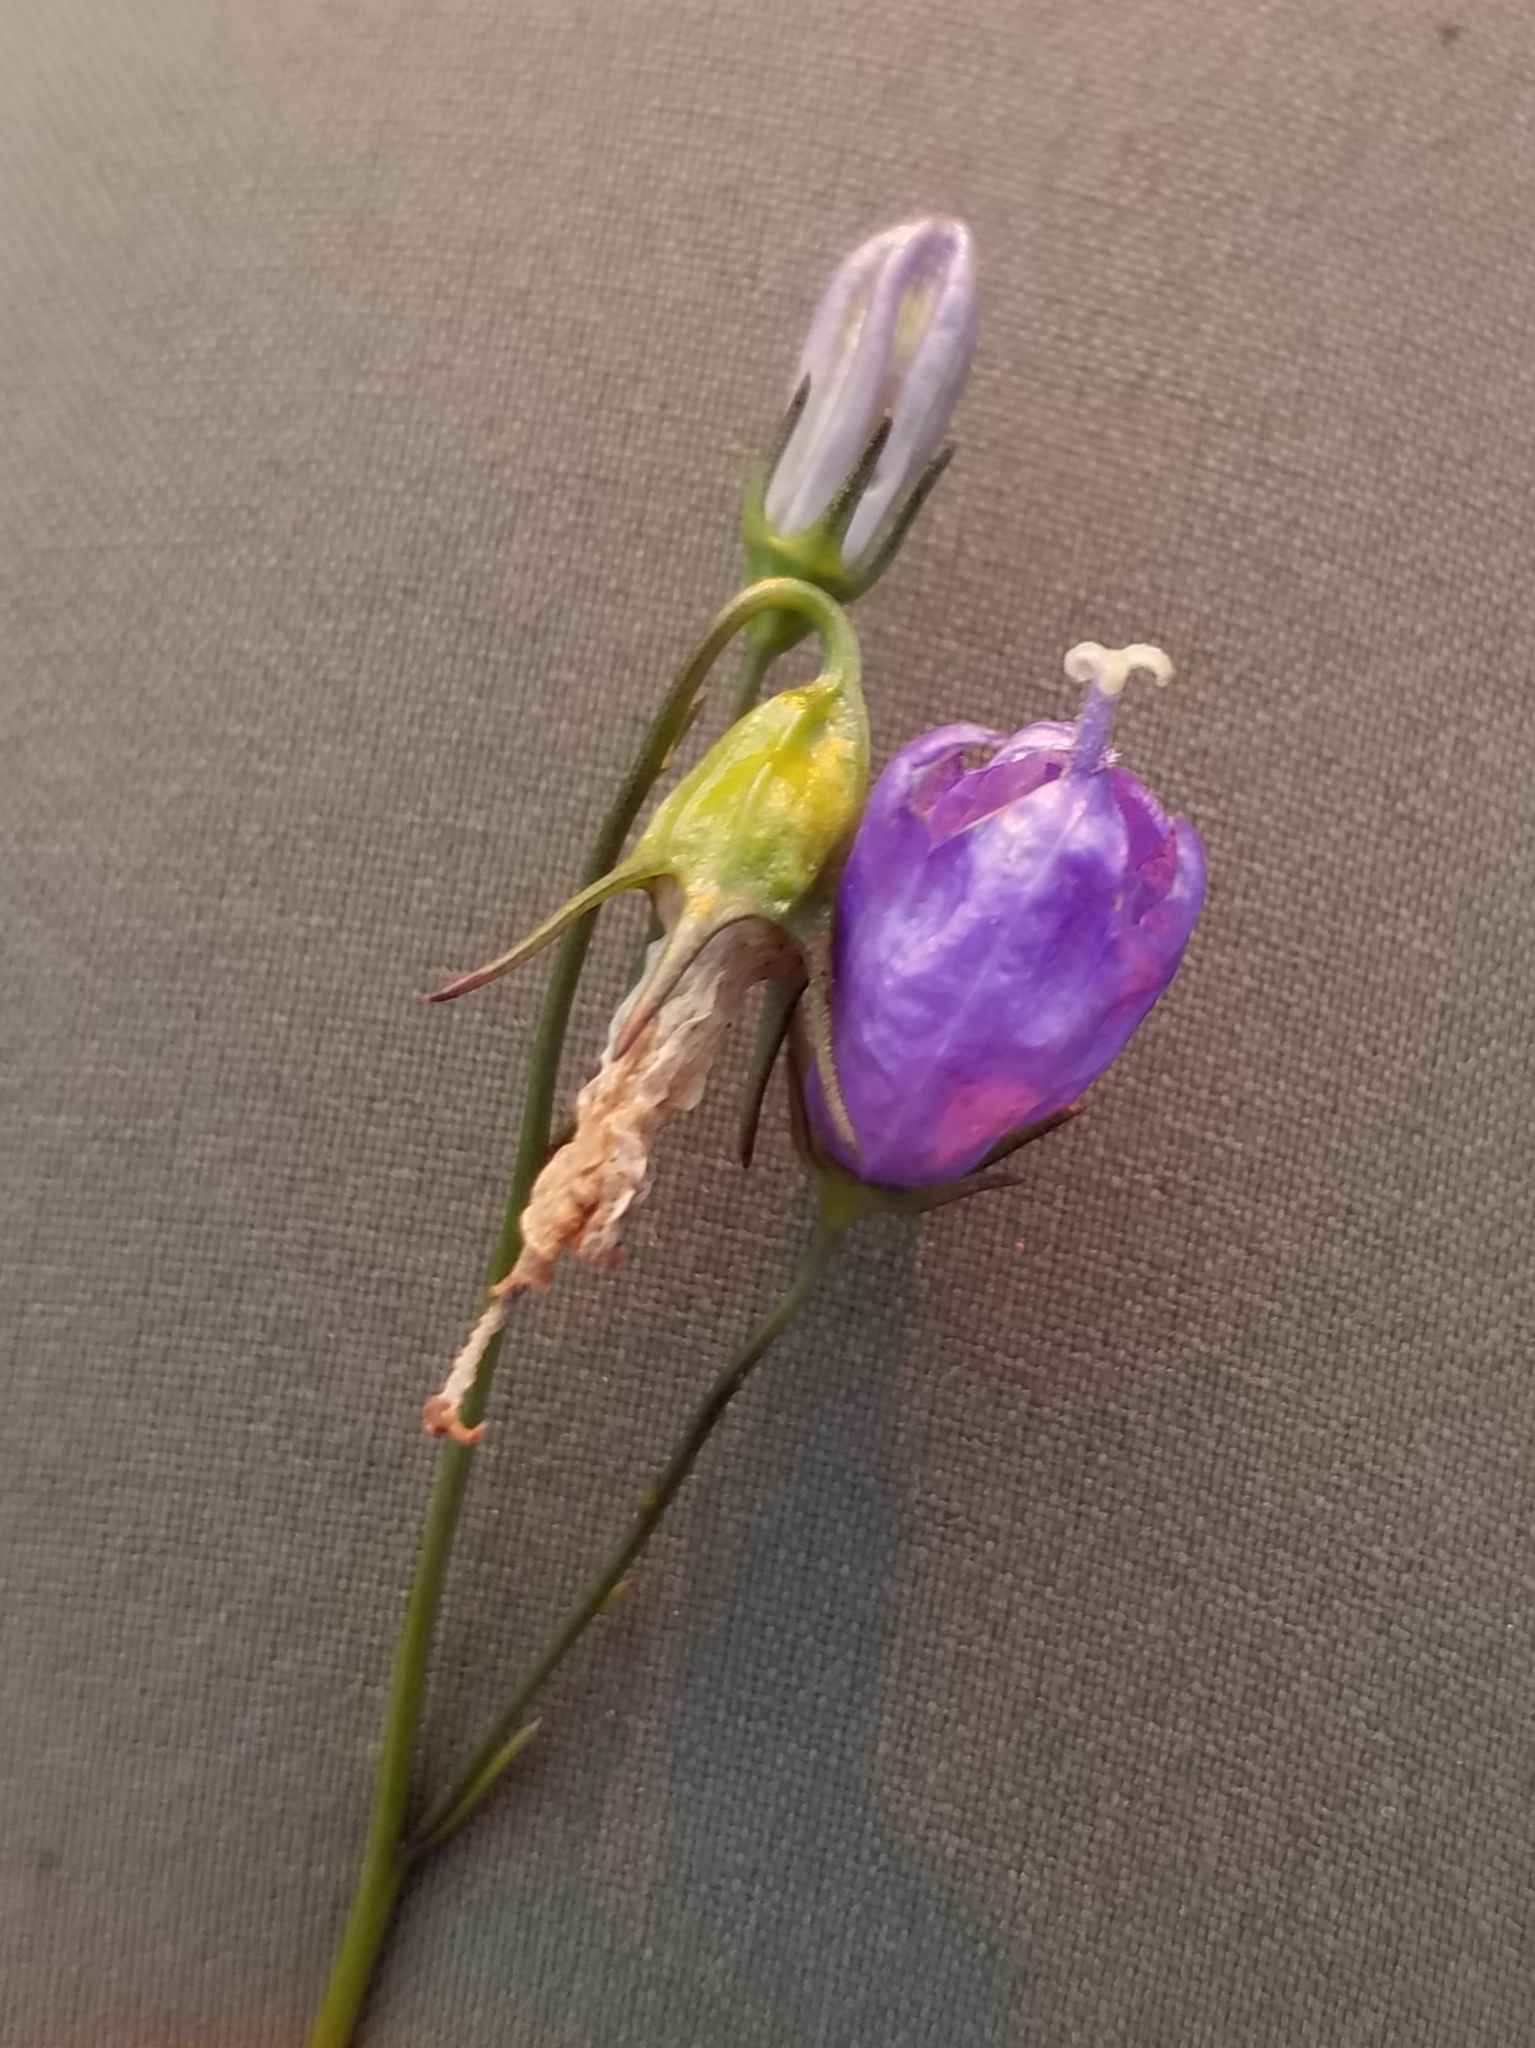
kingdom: Plantae
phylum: Tracheophyta
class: Magnoliopsida
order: Asterales
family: Campanulaceae
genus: Campanula
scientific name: Campanula rotundifolia
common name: Harebell
